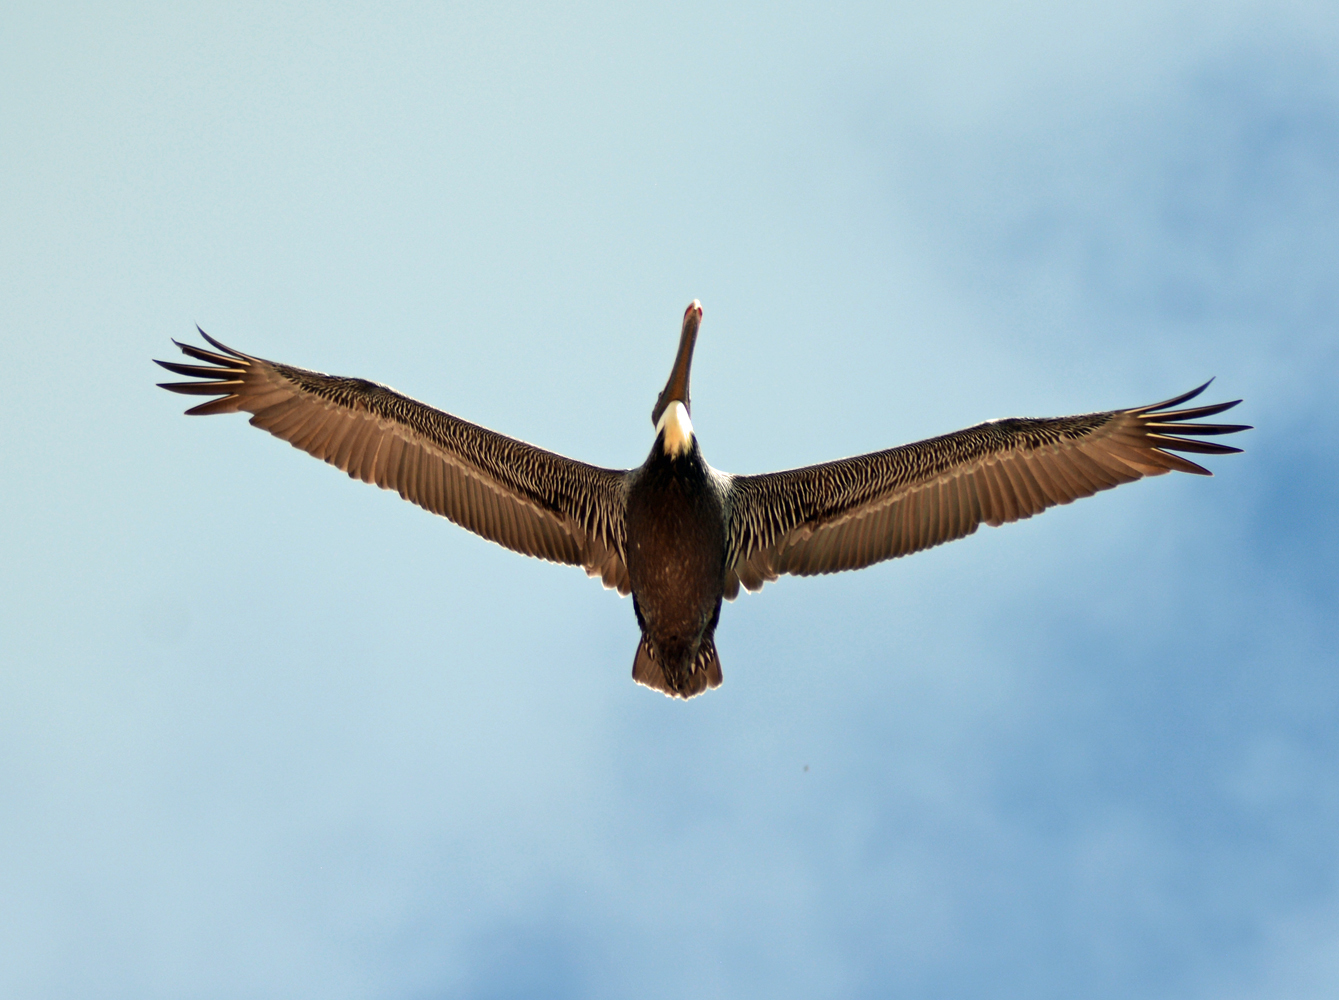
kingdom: Animalia
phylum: Chordata
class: Aves
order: Pelecaniformes
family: Pelecanidae
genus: Pelecanus
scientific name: Pelecanus occidentalis
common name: Brown pelican
